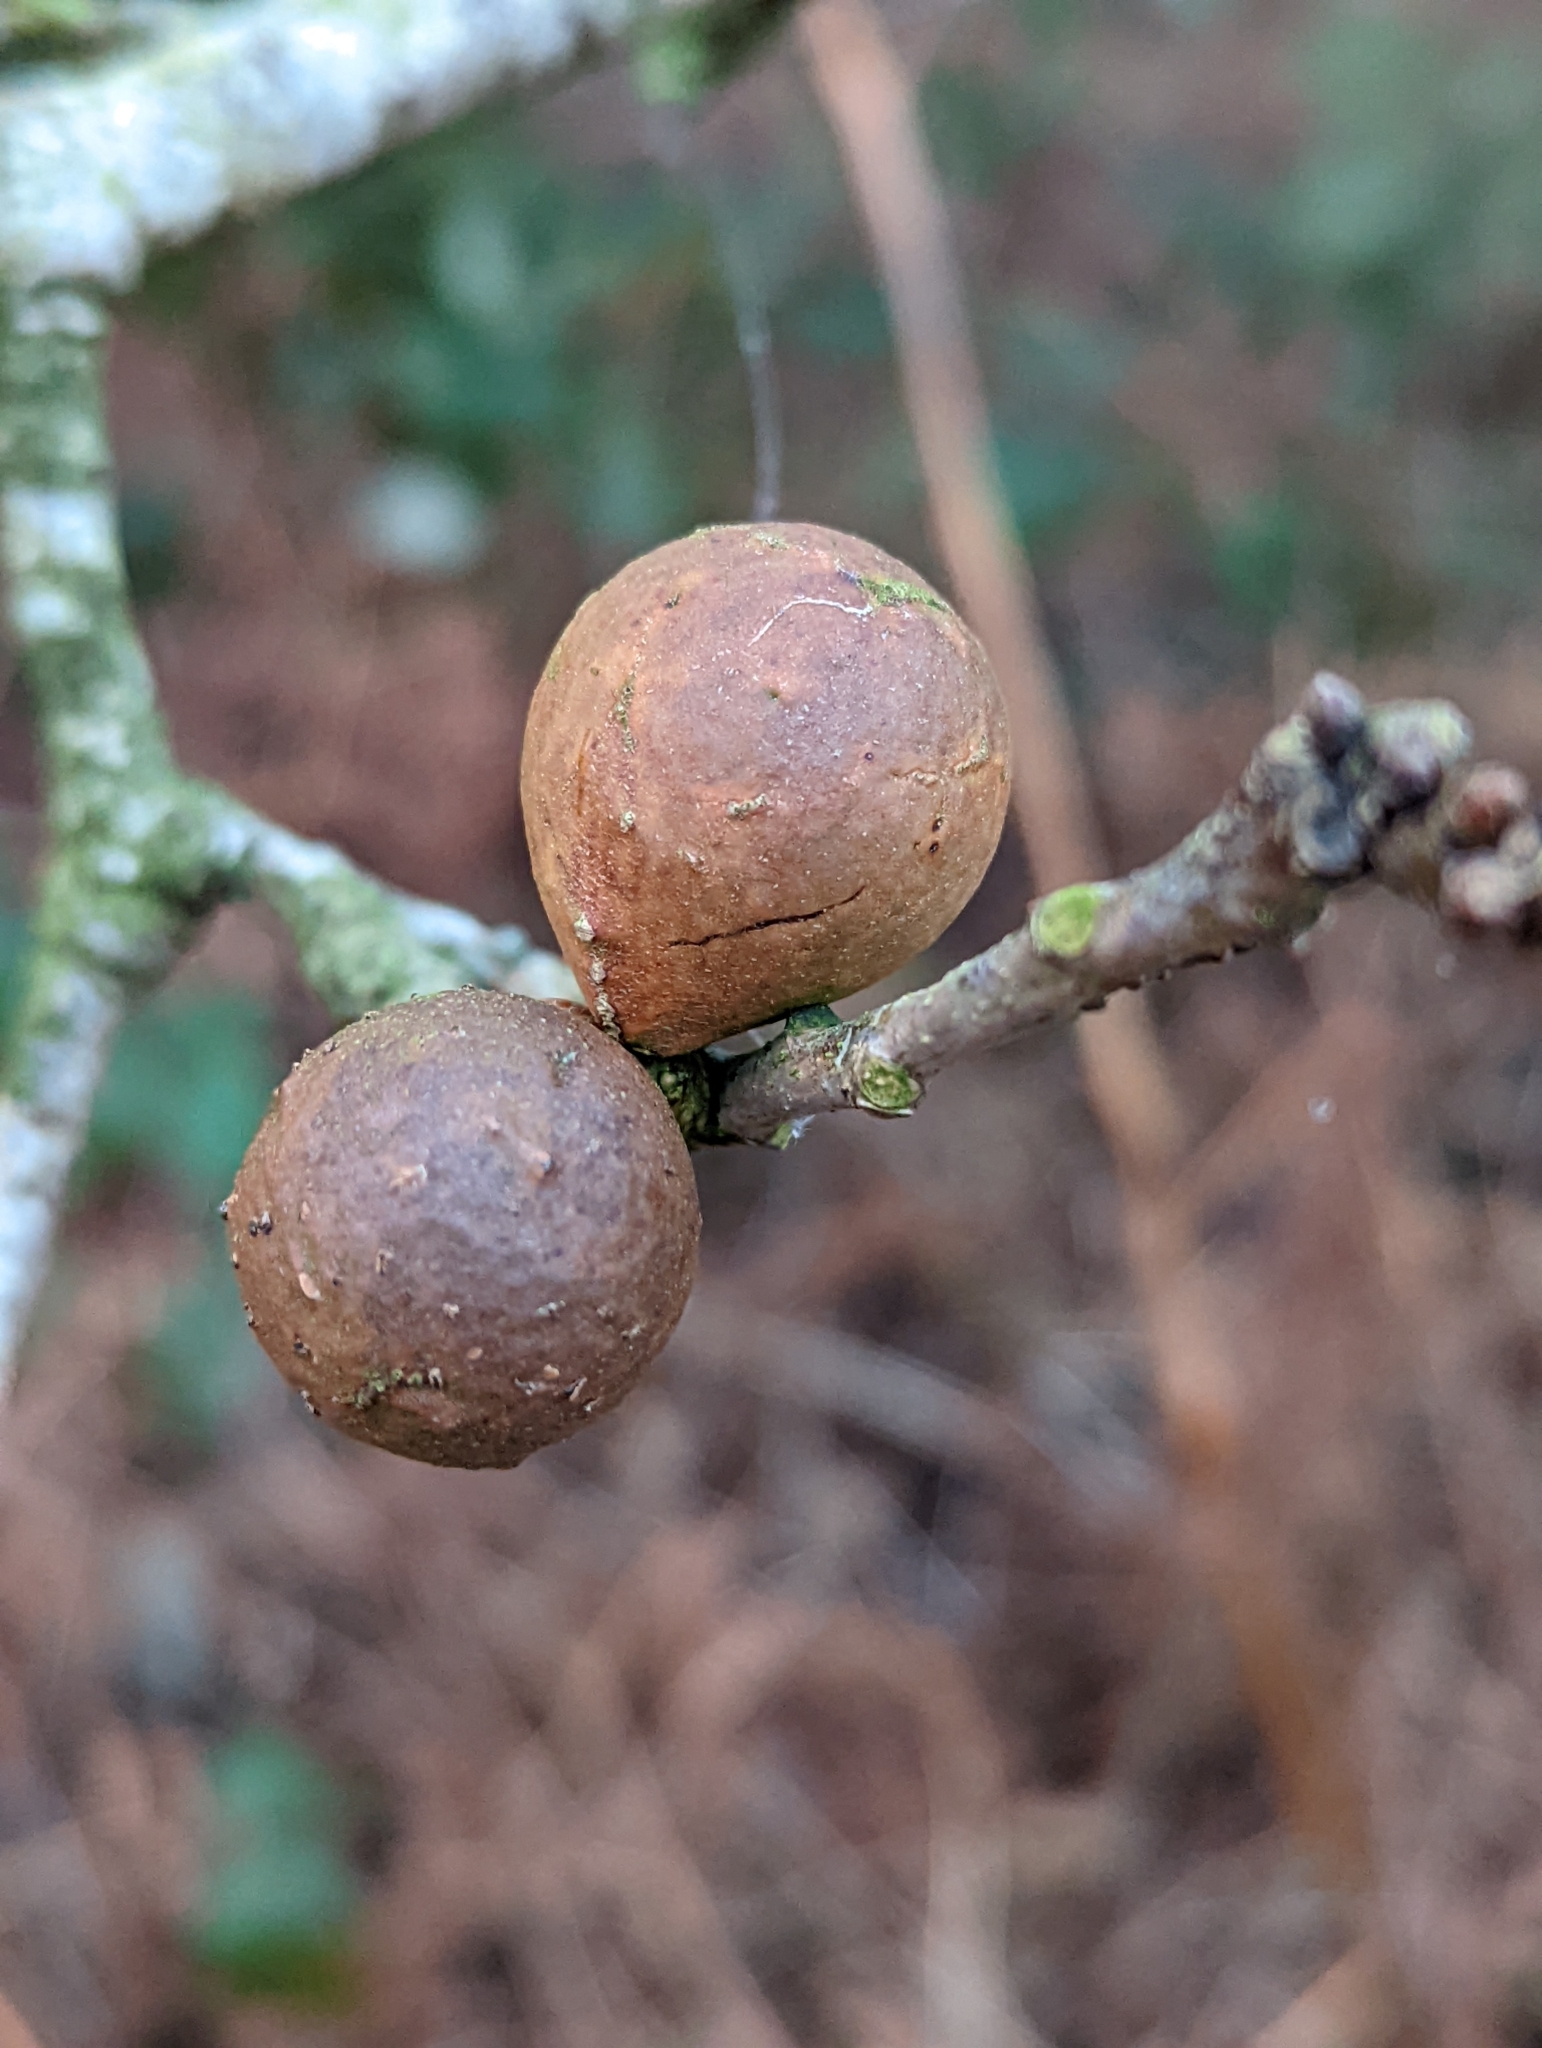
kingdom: Animalia
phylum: Arthropoda
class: Insecta
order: Hymenoptera
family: Cynipidae
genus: Andricus
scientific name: Andricus kollari
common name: Marble gall
